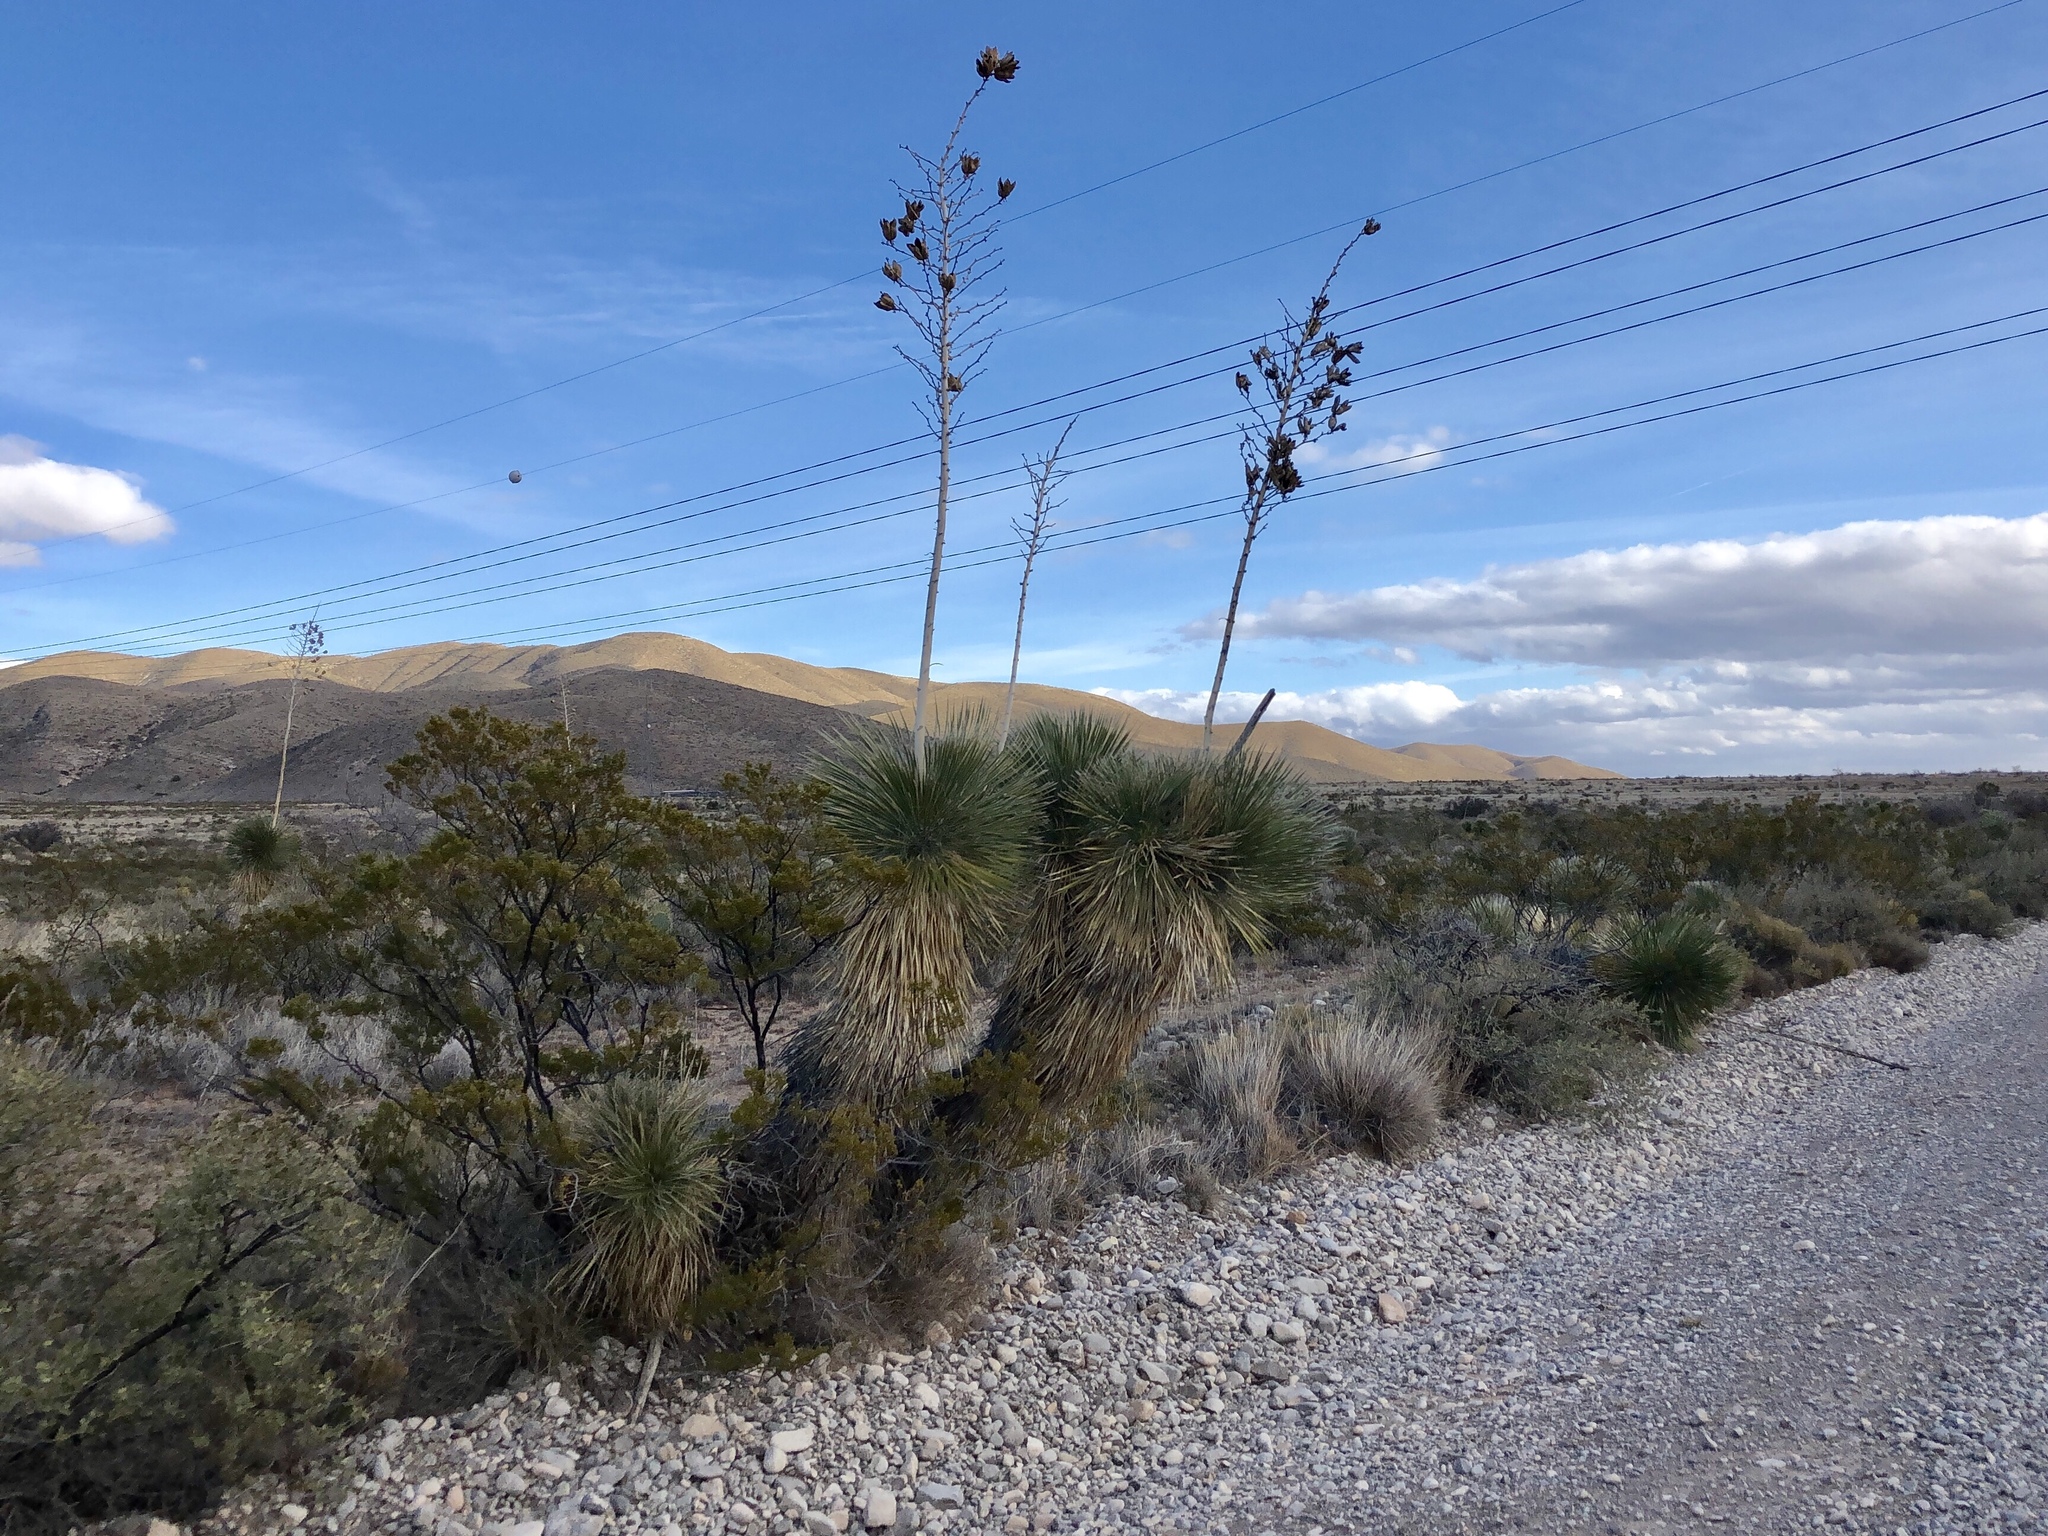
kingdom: Plantae
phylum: Tracheophyta
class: Liliopsida
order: Asparagales
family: Asparagaceae
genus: Yucca
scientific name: Yucca elata
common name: Palmella
